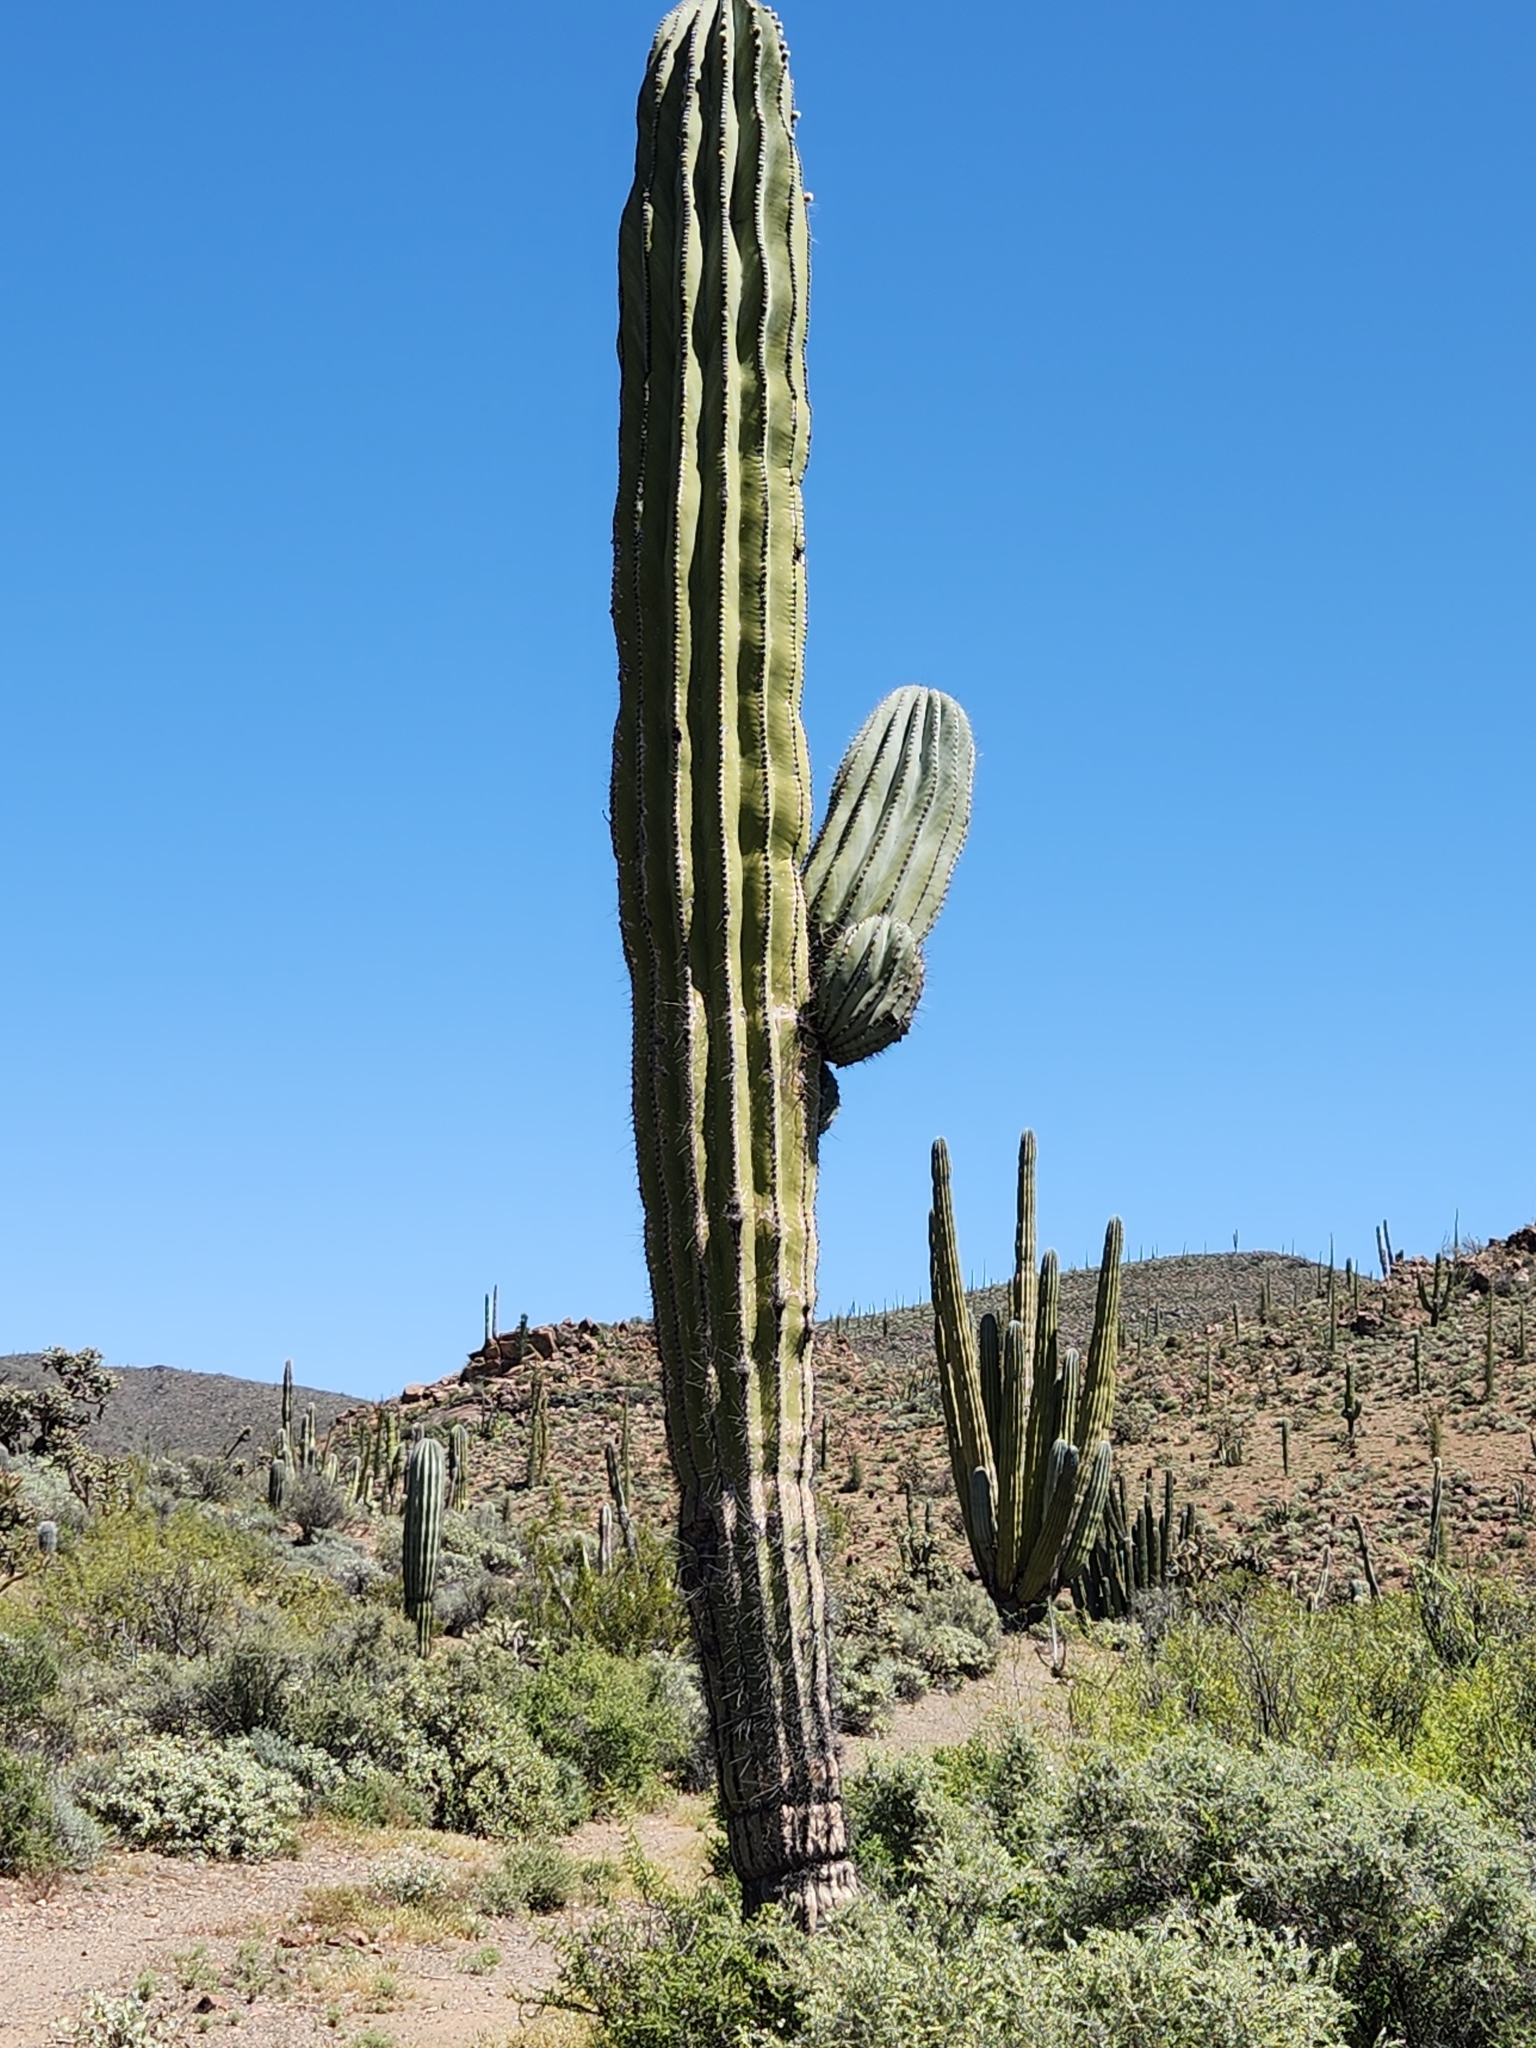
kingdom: Plantae
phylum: Tracheophyta
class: Magnoliopsida
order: Caryophyllales
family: Cactaceae
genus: Pachycereus
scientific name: Pachycereus pringlei
